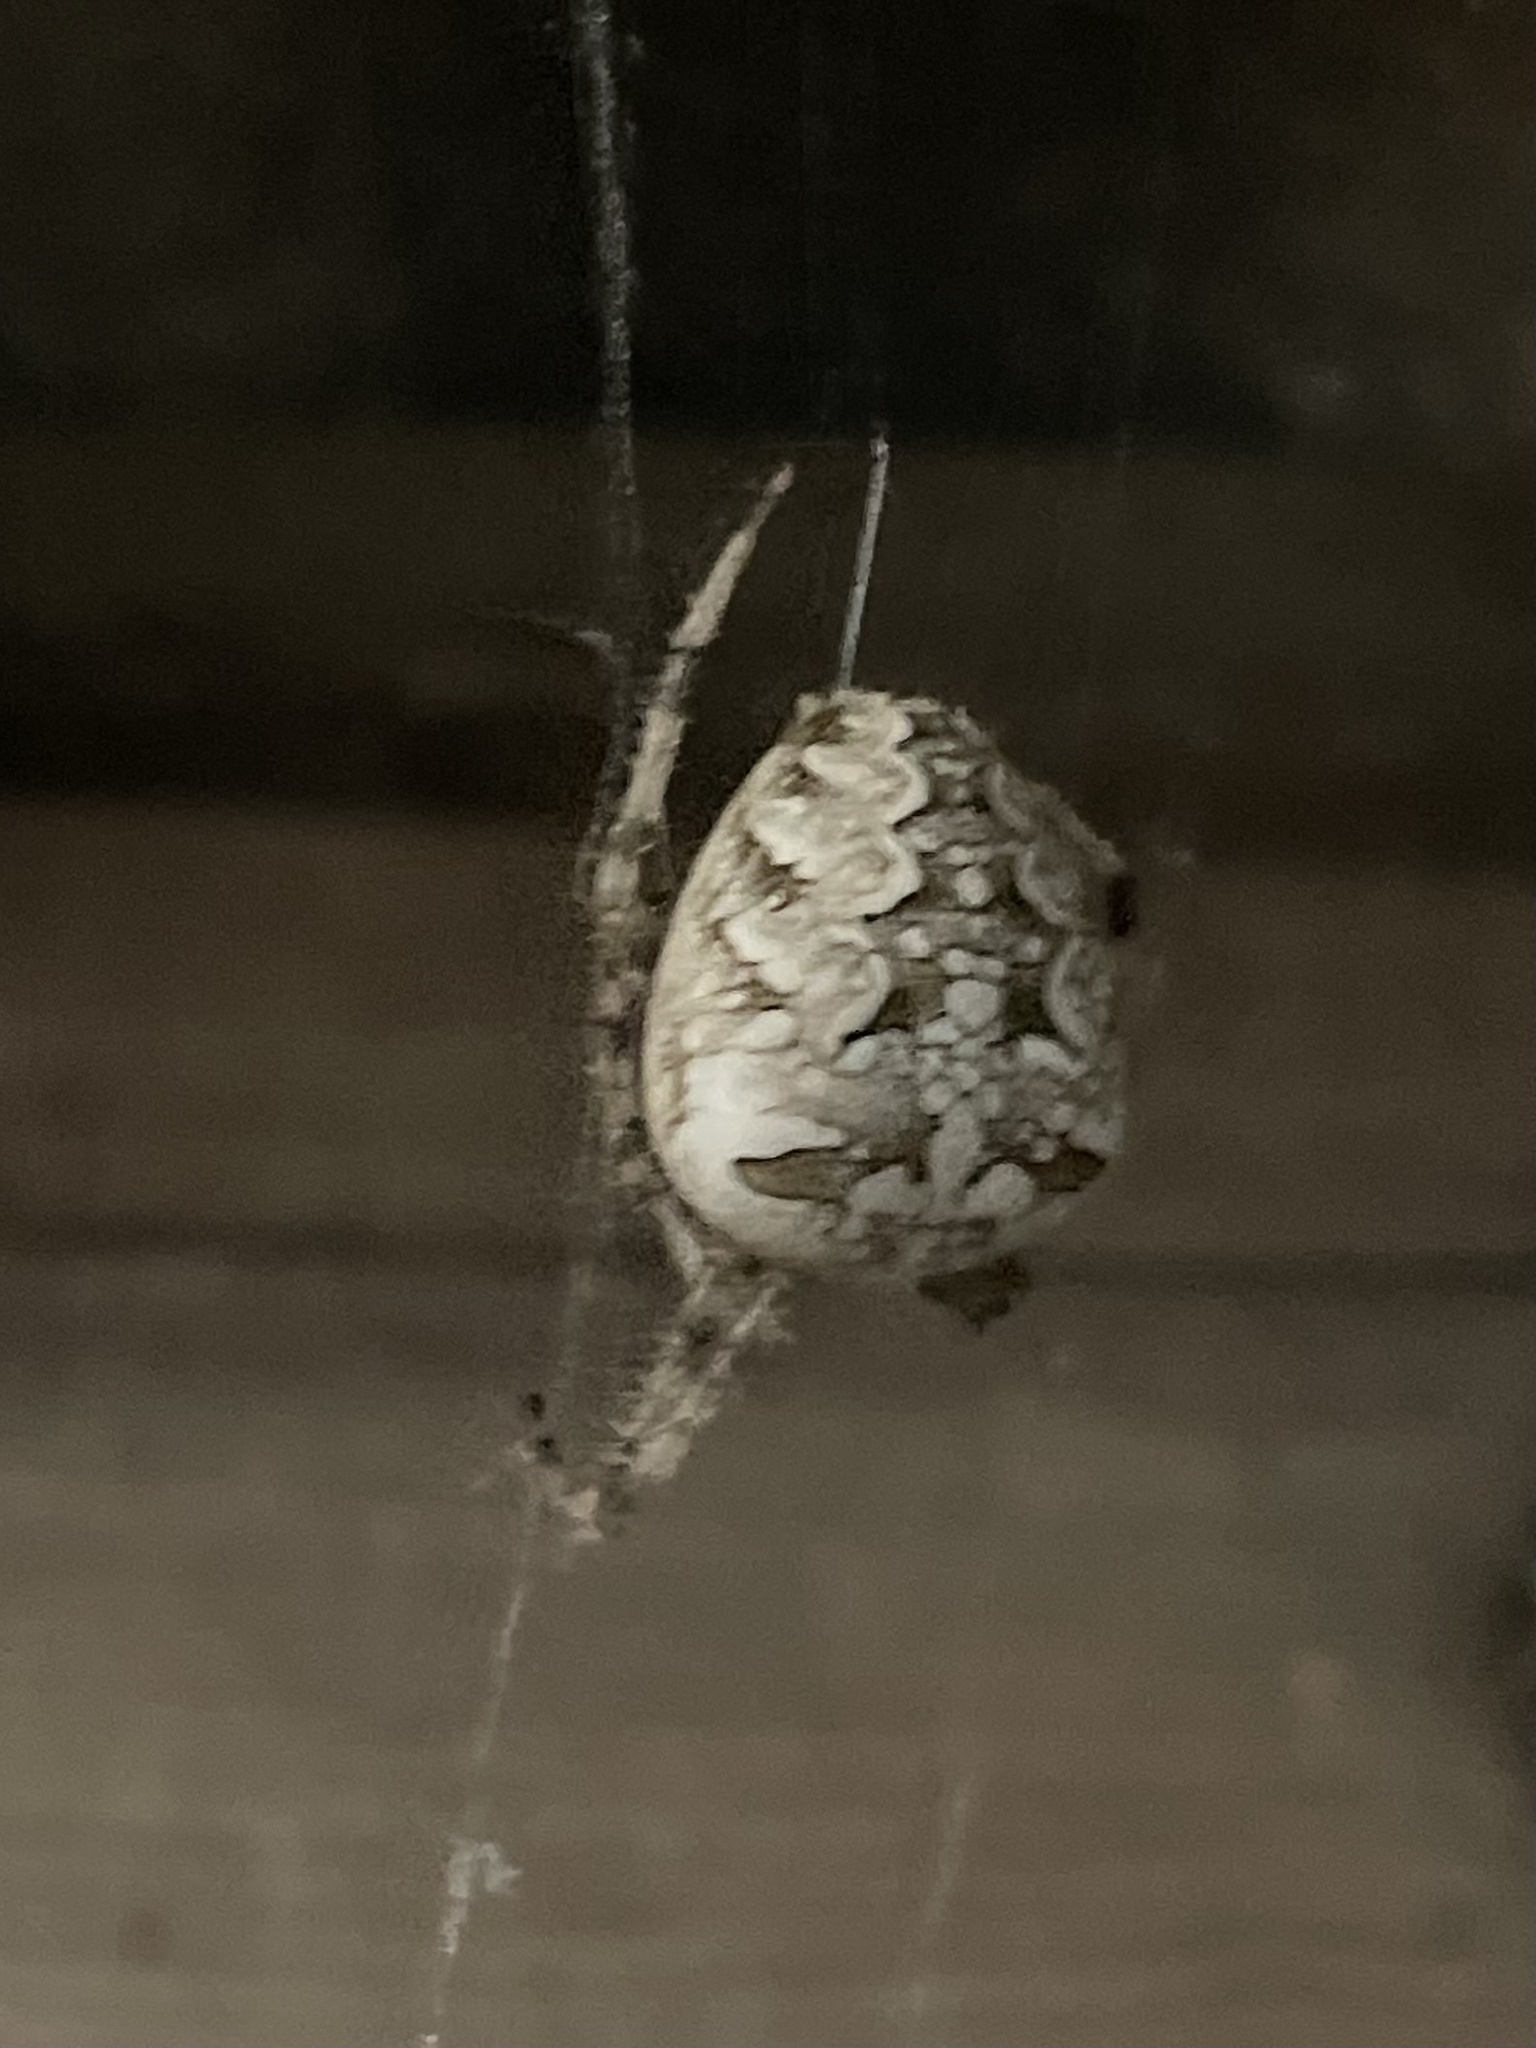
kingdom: Animalia
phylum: Arthropoda
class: Arachnida
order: Araneae
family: Araneidae
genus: Araneus
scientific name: Araneus diadematus
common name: Cross orbweaver
